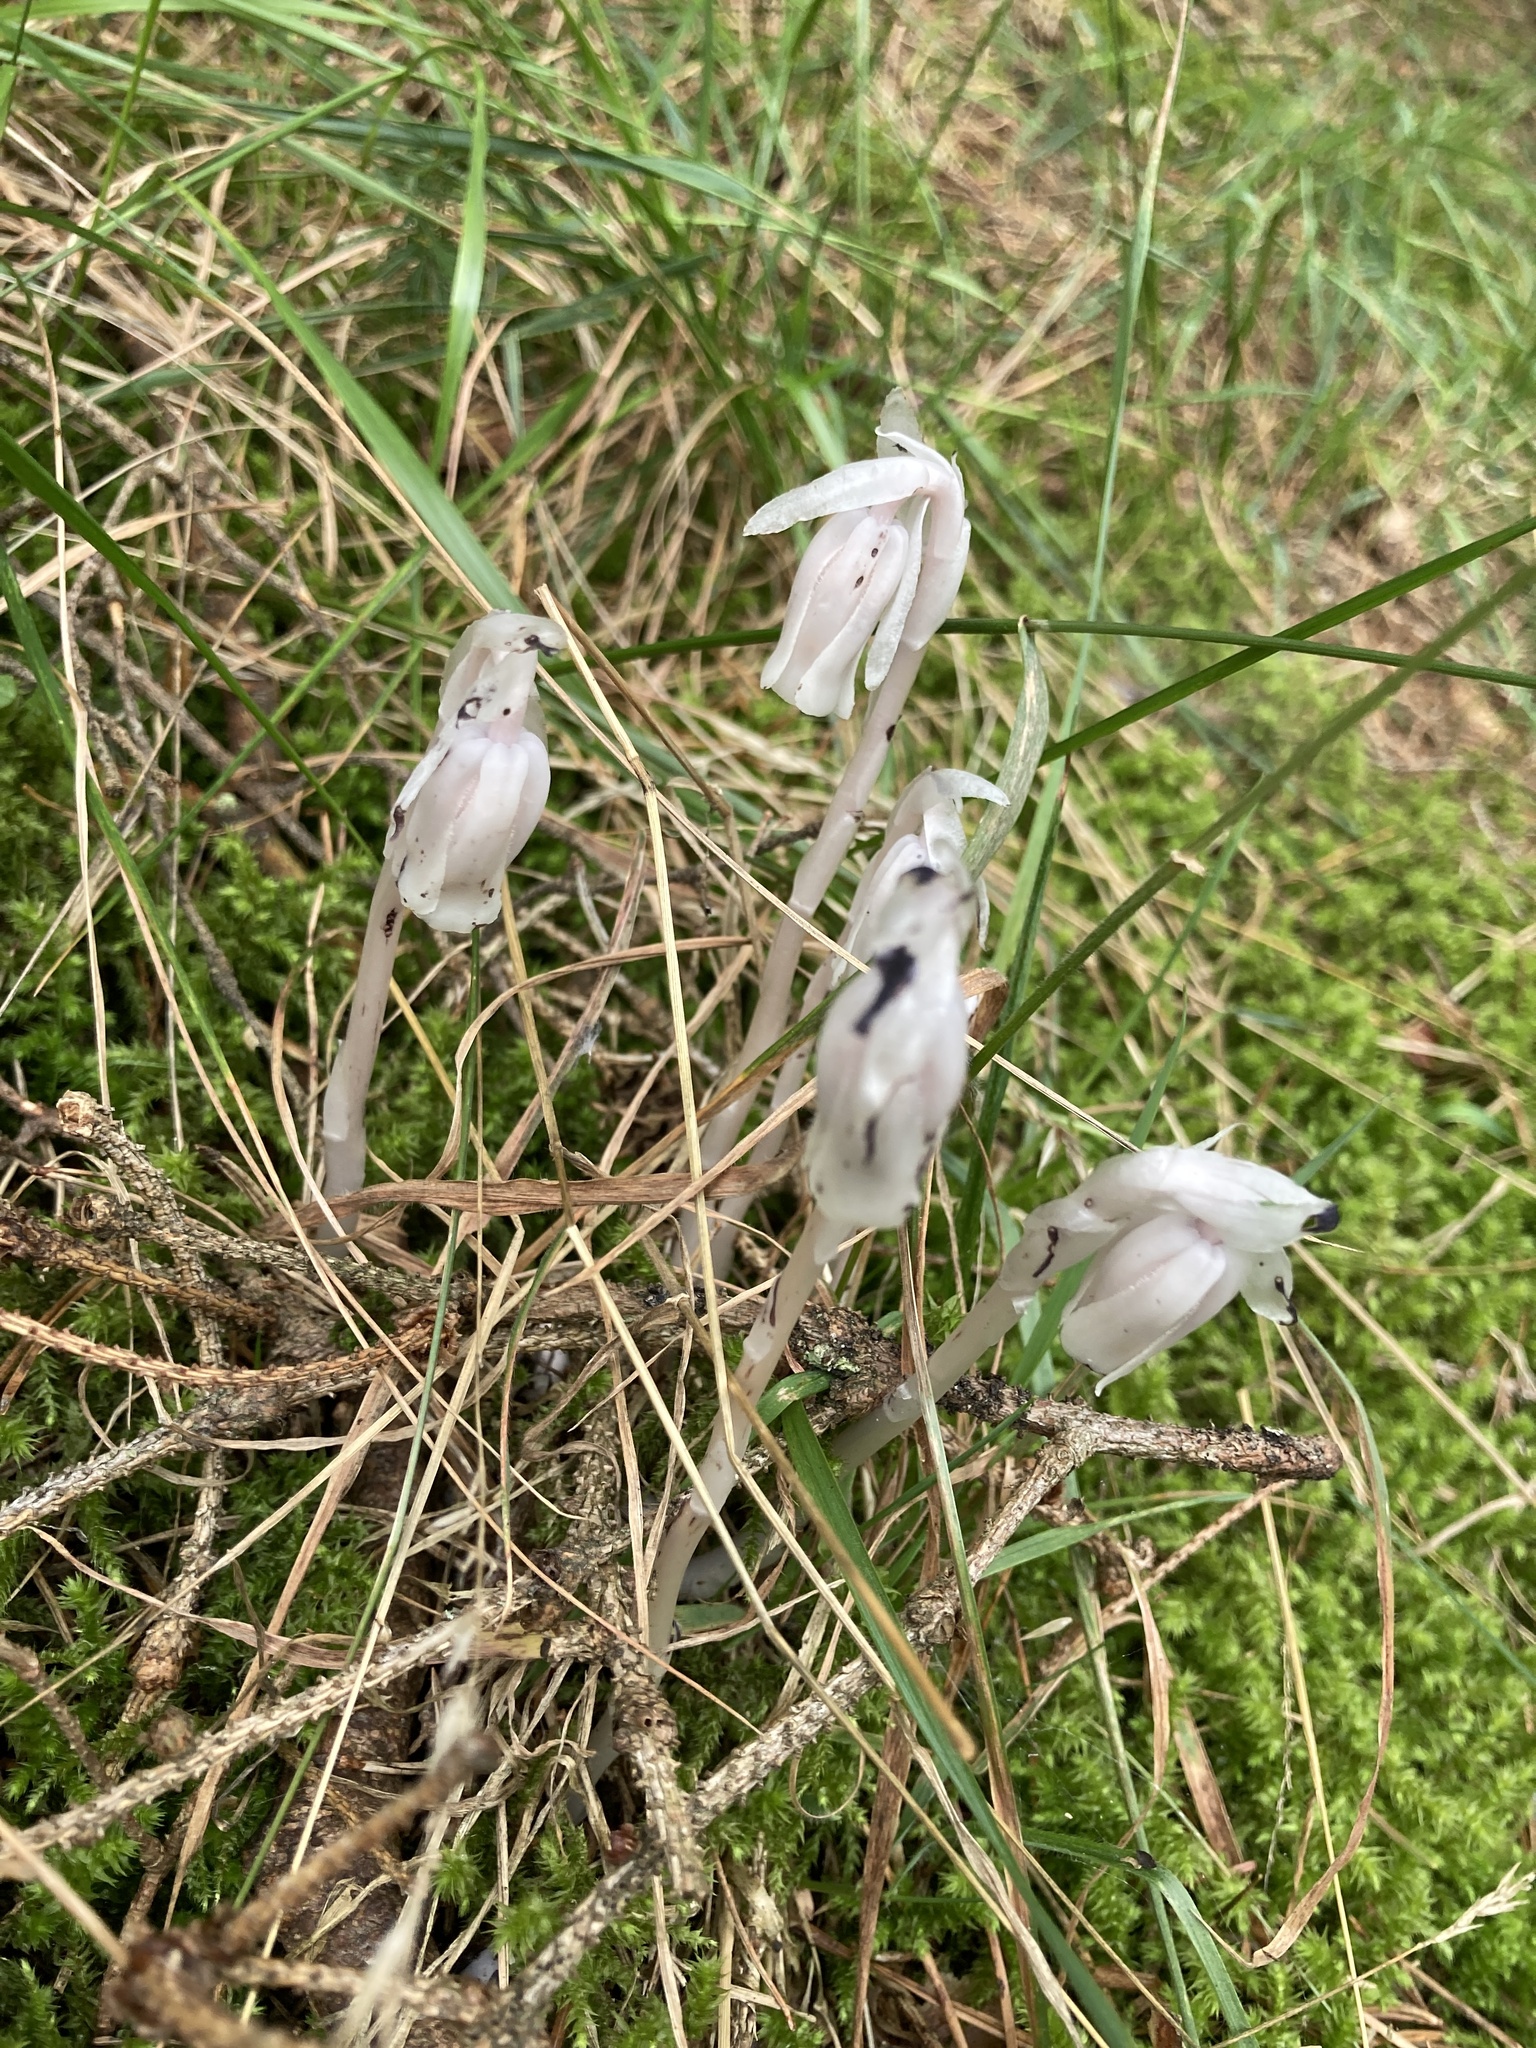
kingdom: Plantae
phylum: Tracheophyta
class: Magnoliopsida
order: Ericales
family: Ericaceae
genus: Monotropa
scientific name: Monotropa uniflora
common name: Convulsion root
